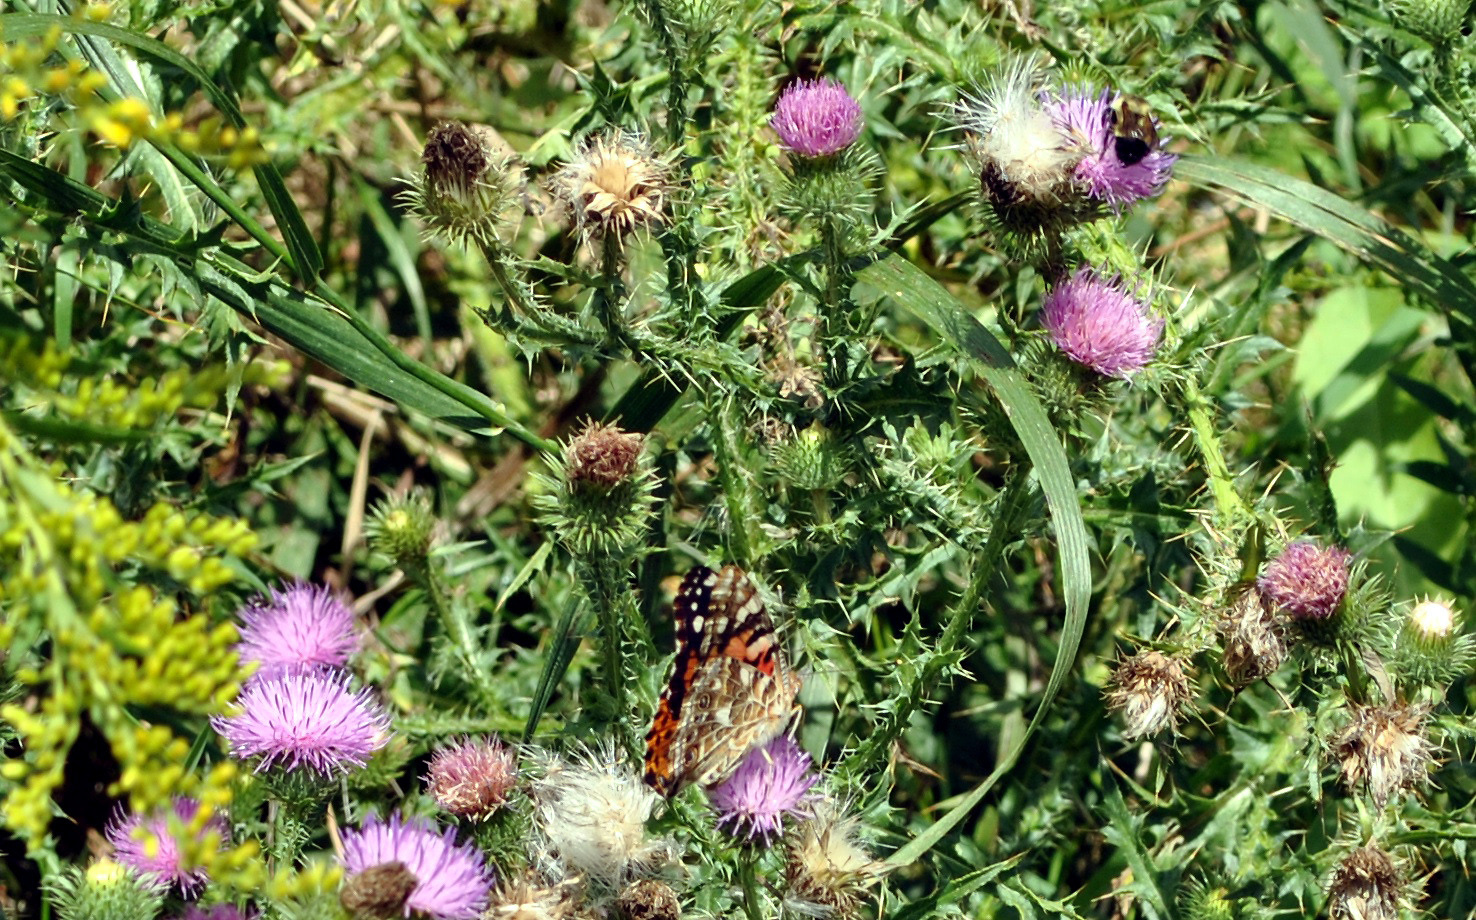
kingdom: Animalia
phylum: Arthropoda
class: Insecta
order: Lepidoptera
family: Nymphalidae
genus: Vanessa
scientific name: Vanessa cardui
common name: Painted lady
